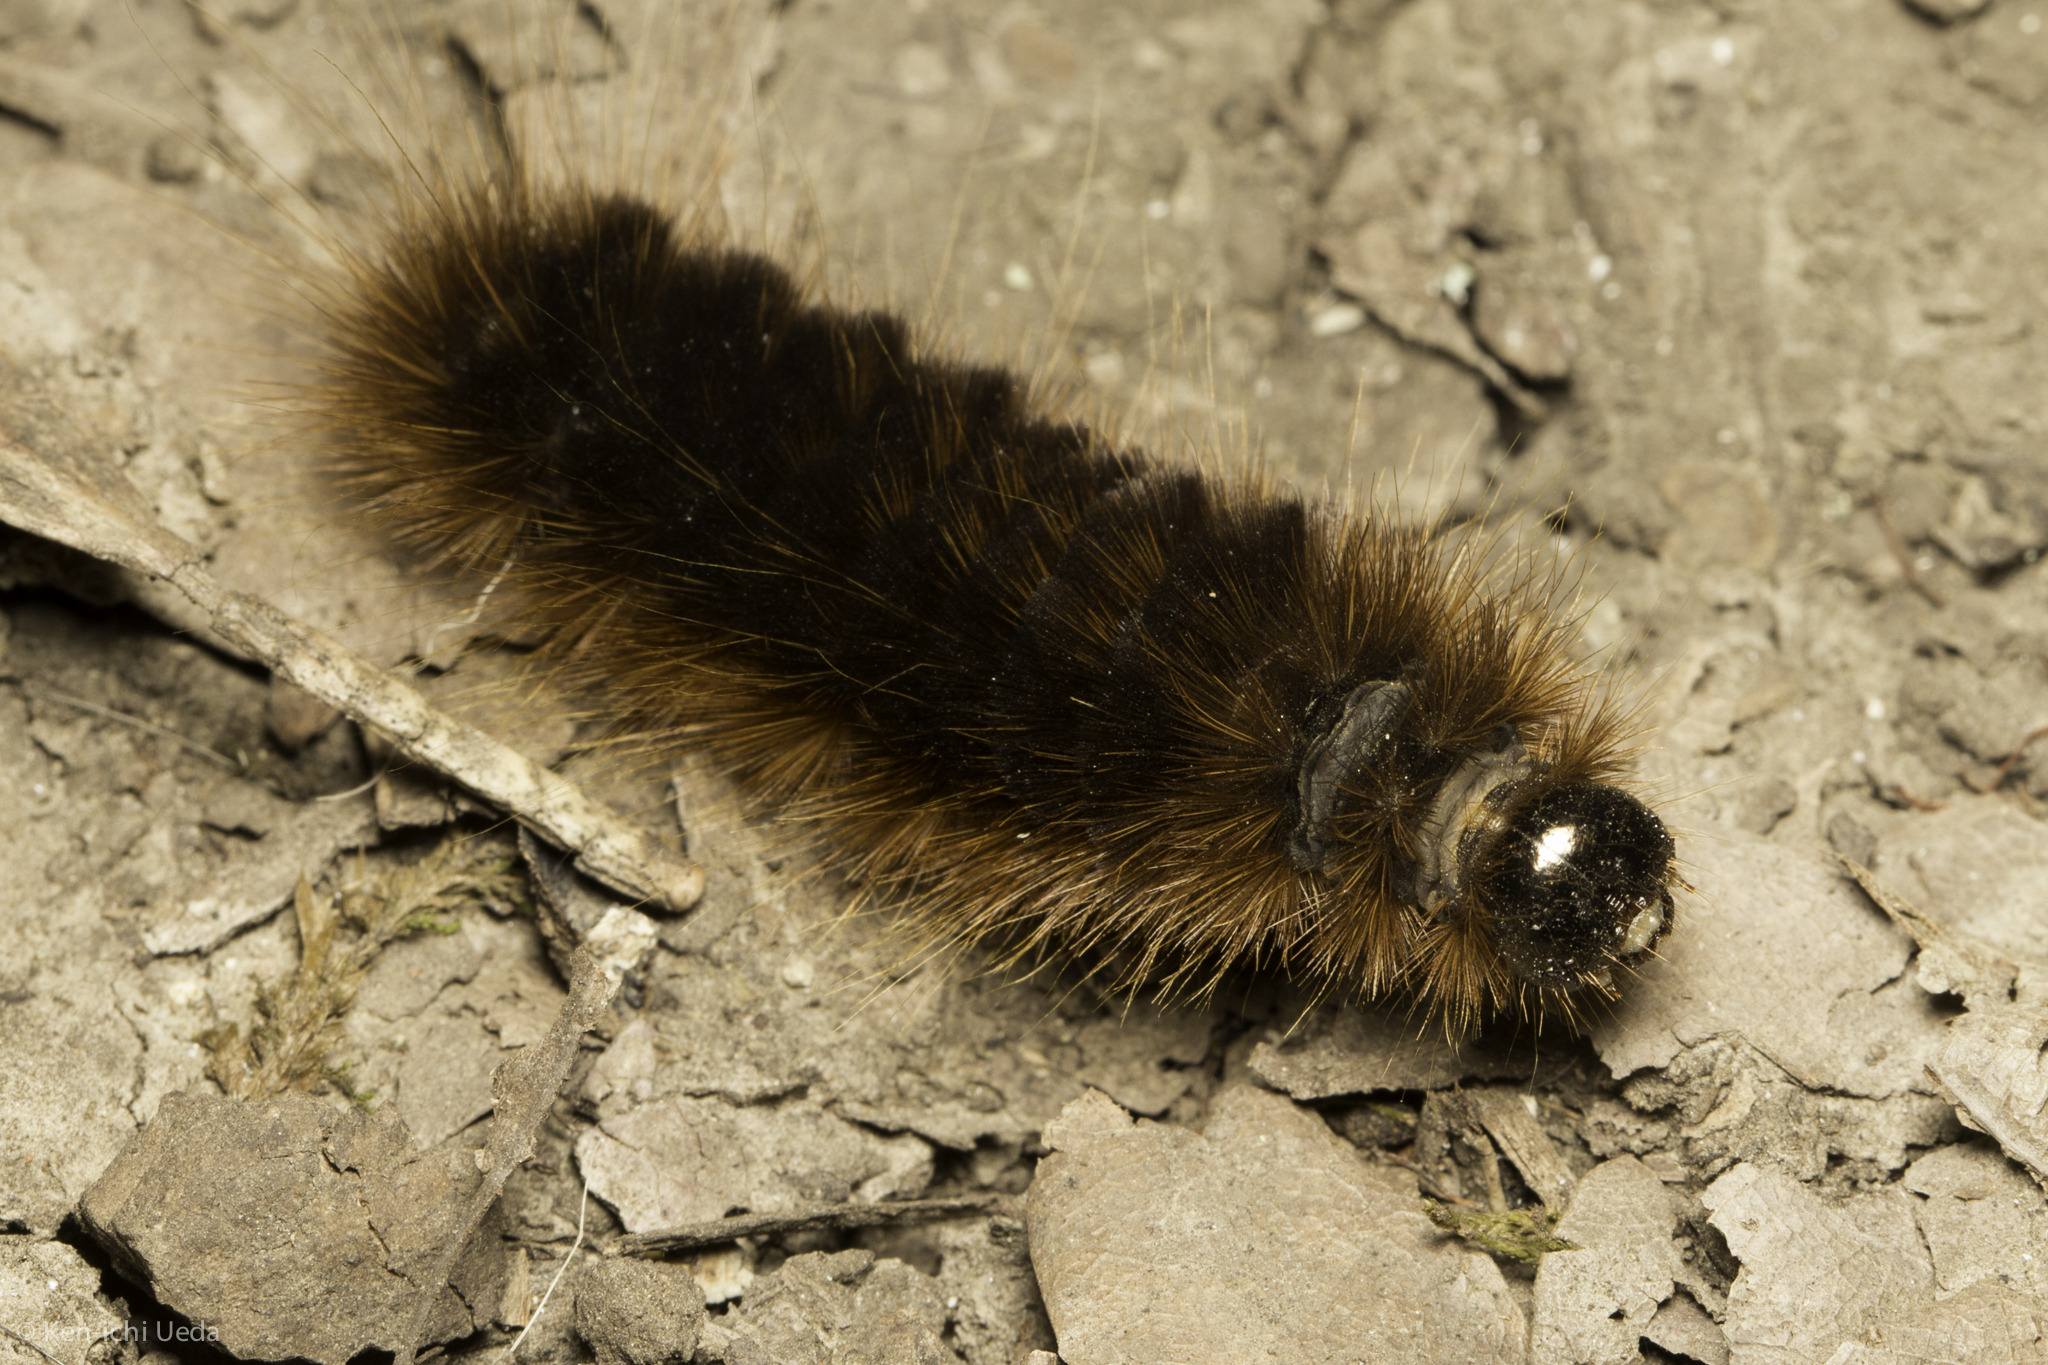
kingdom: Animalia
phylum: Arthropoda
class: Insecta
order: Lepidoptera
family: Erebidae
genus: Hemihyalea
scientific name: Hemihyalea edwardsii
